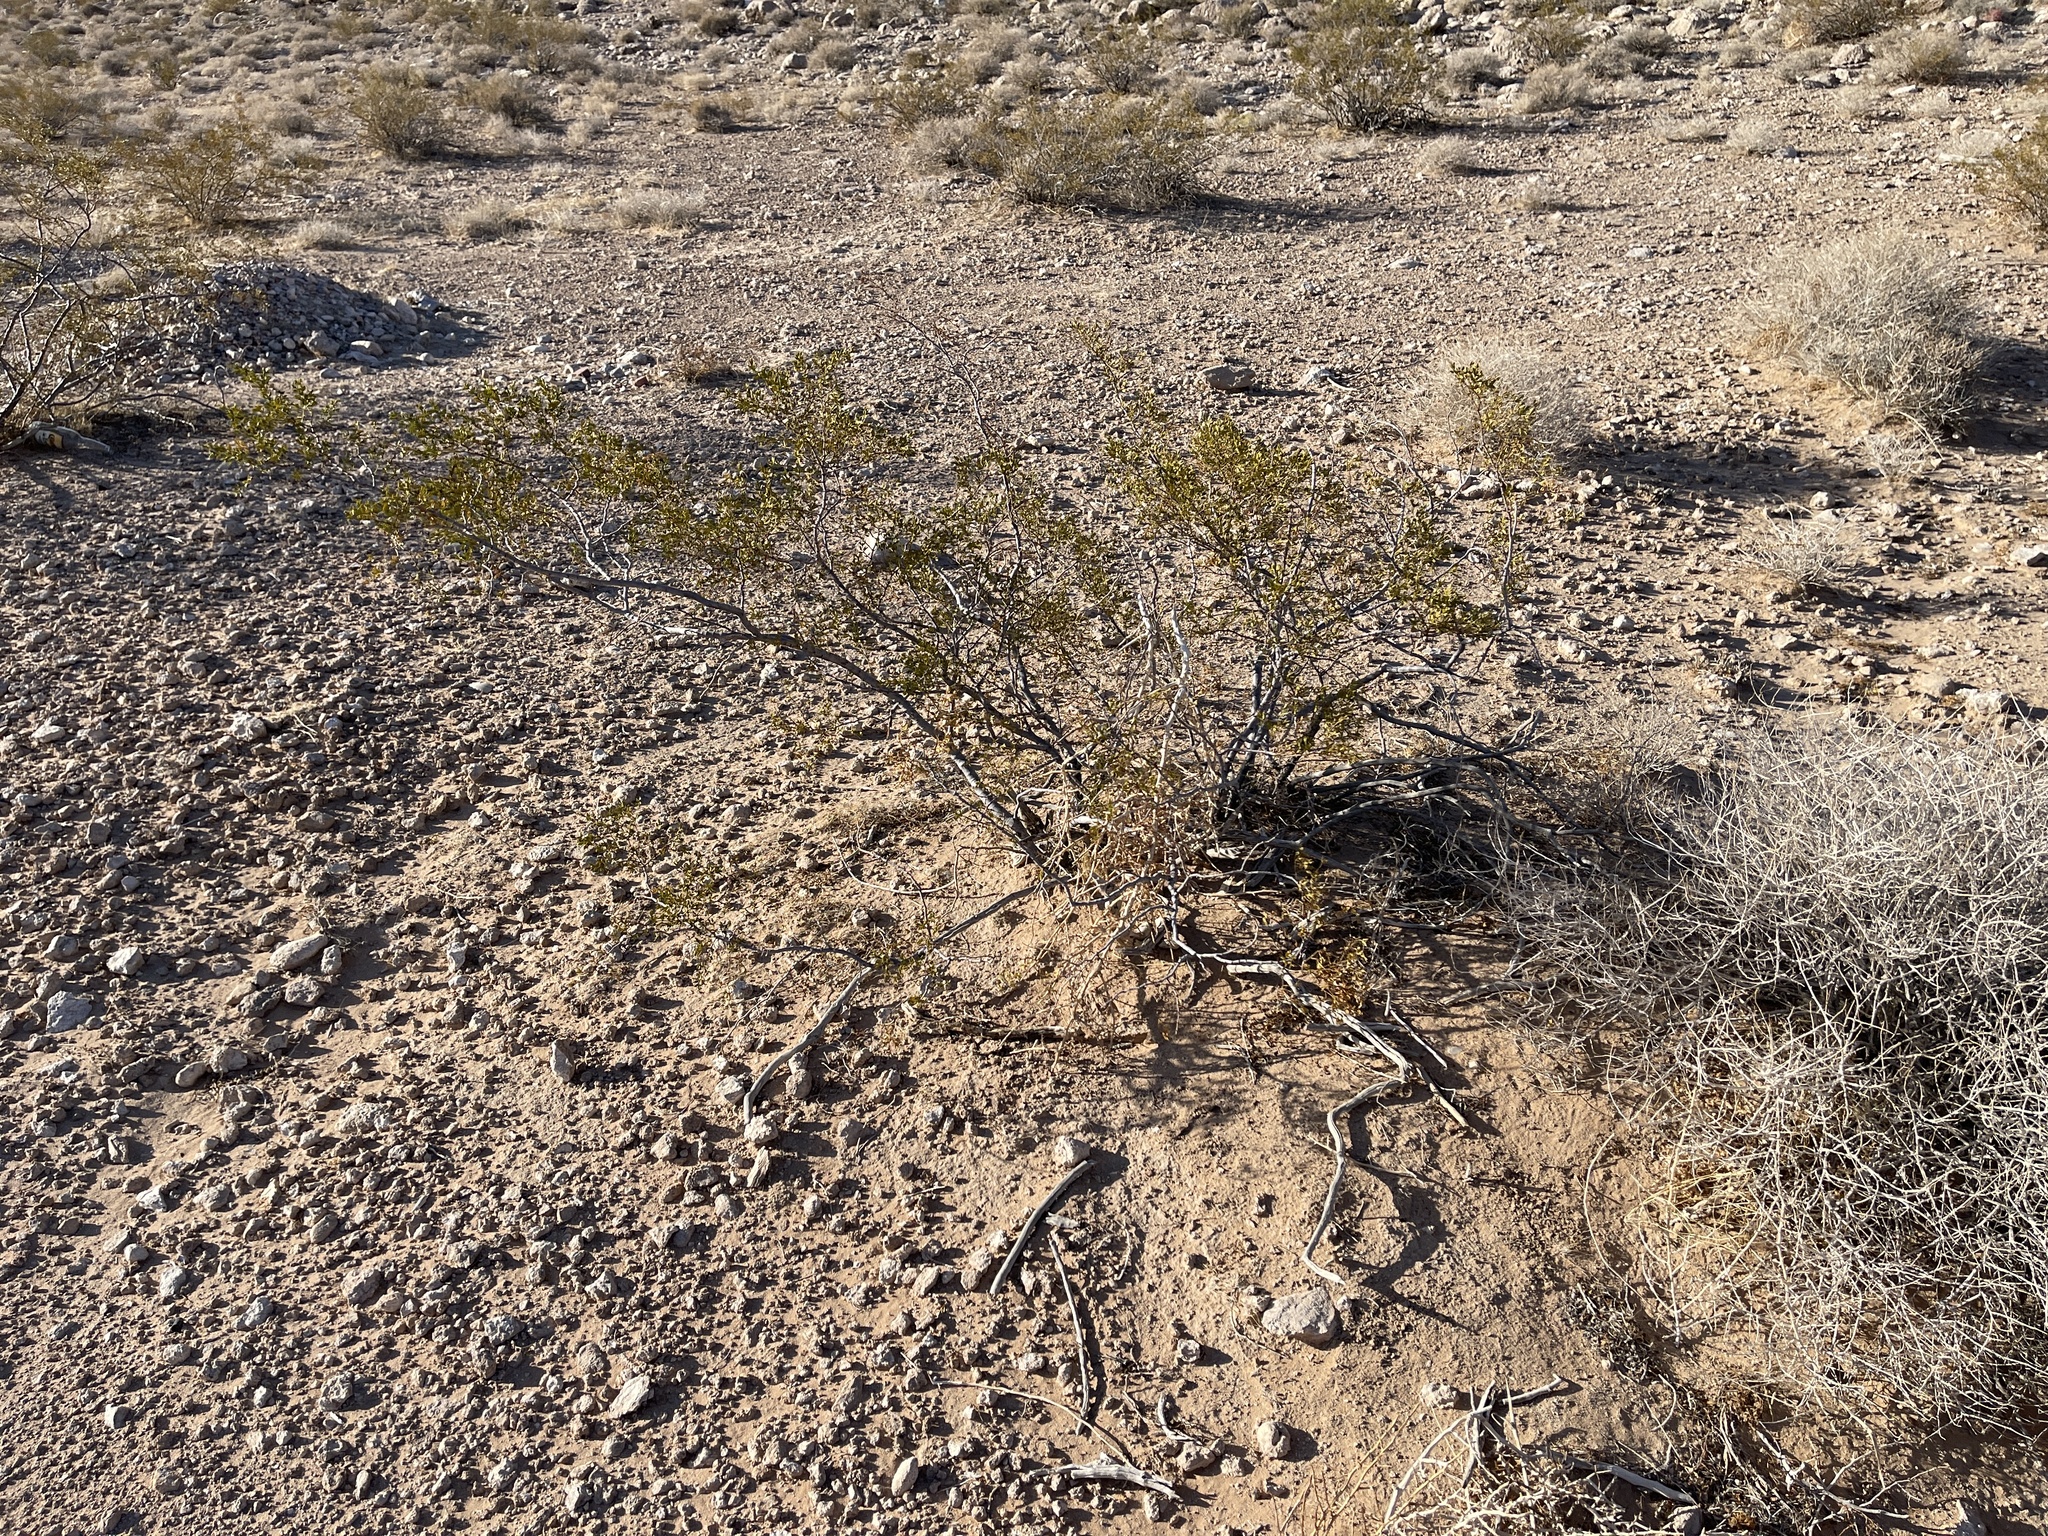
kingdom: Plantae
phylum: Tracheophyta
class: Magnoliopsida
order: Zygophyllales
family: Zygophyllaceae
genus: Larrea
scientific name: Larrea tridentata
